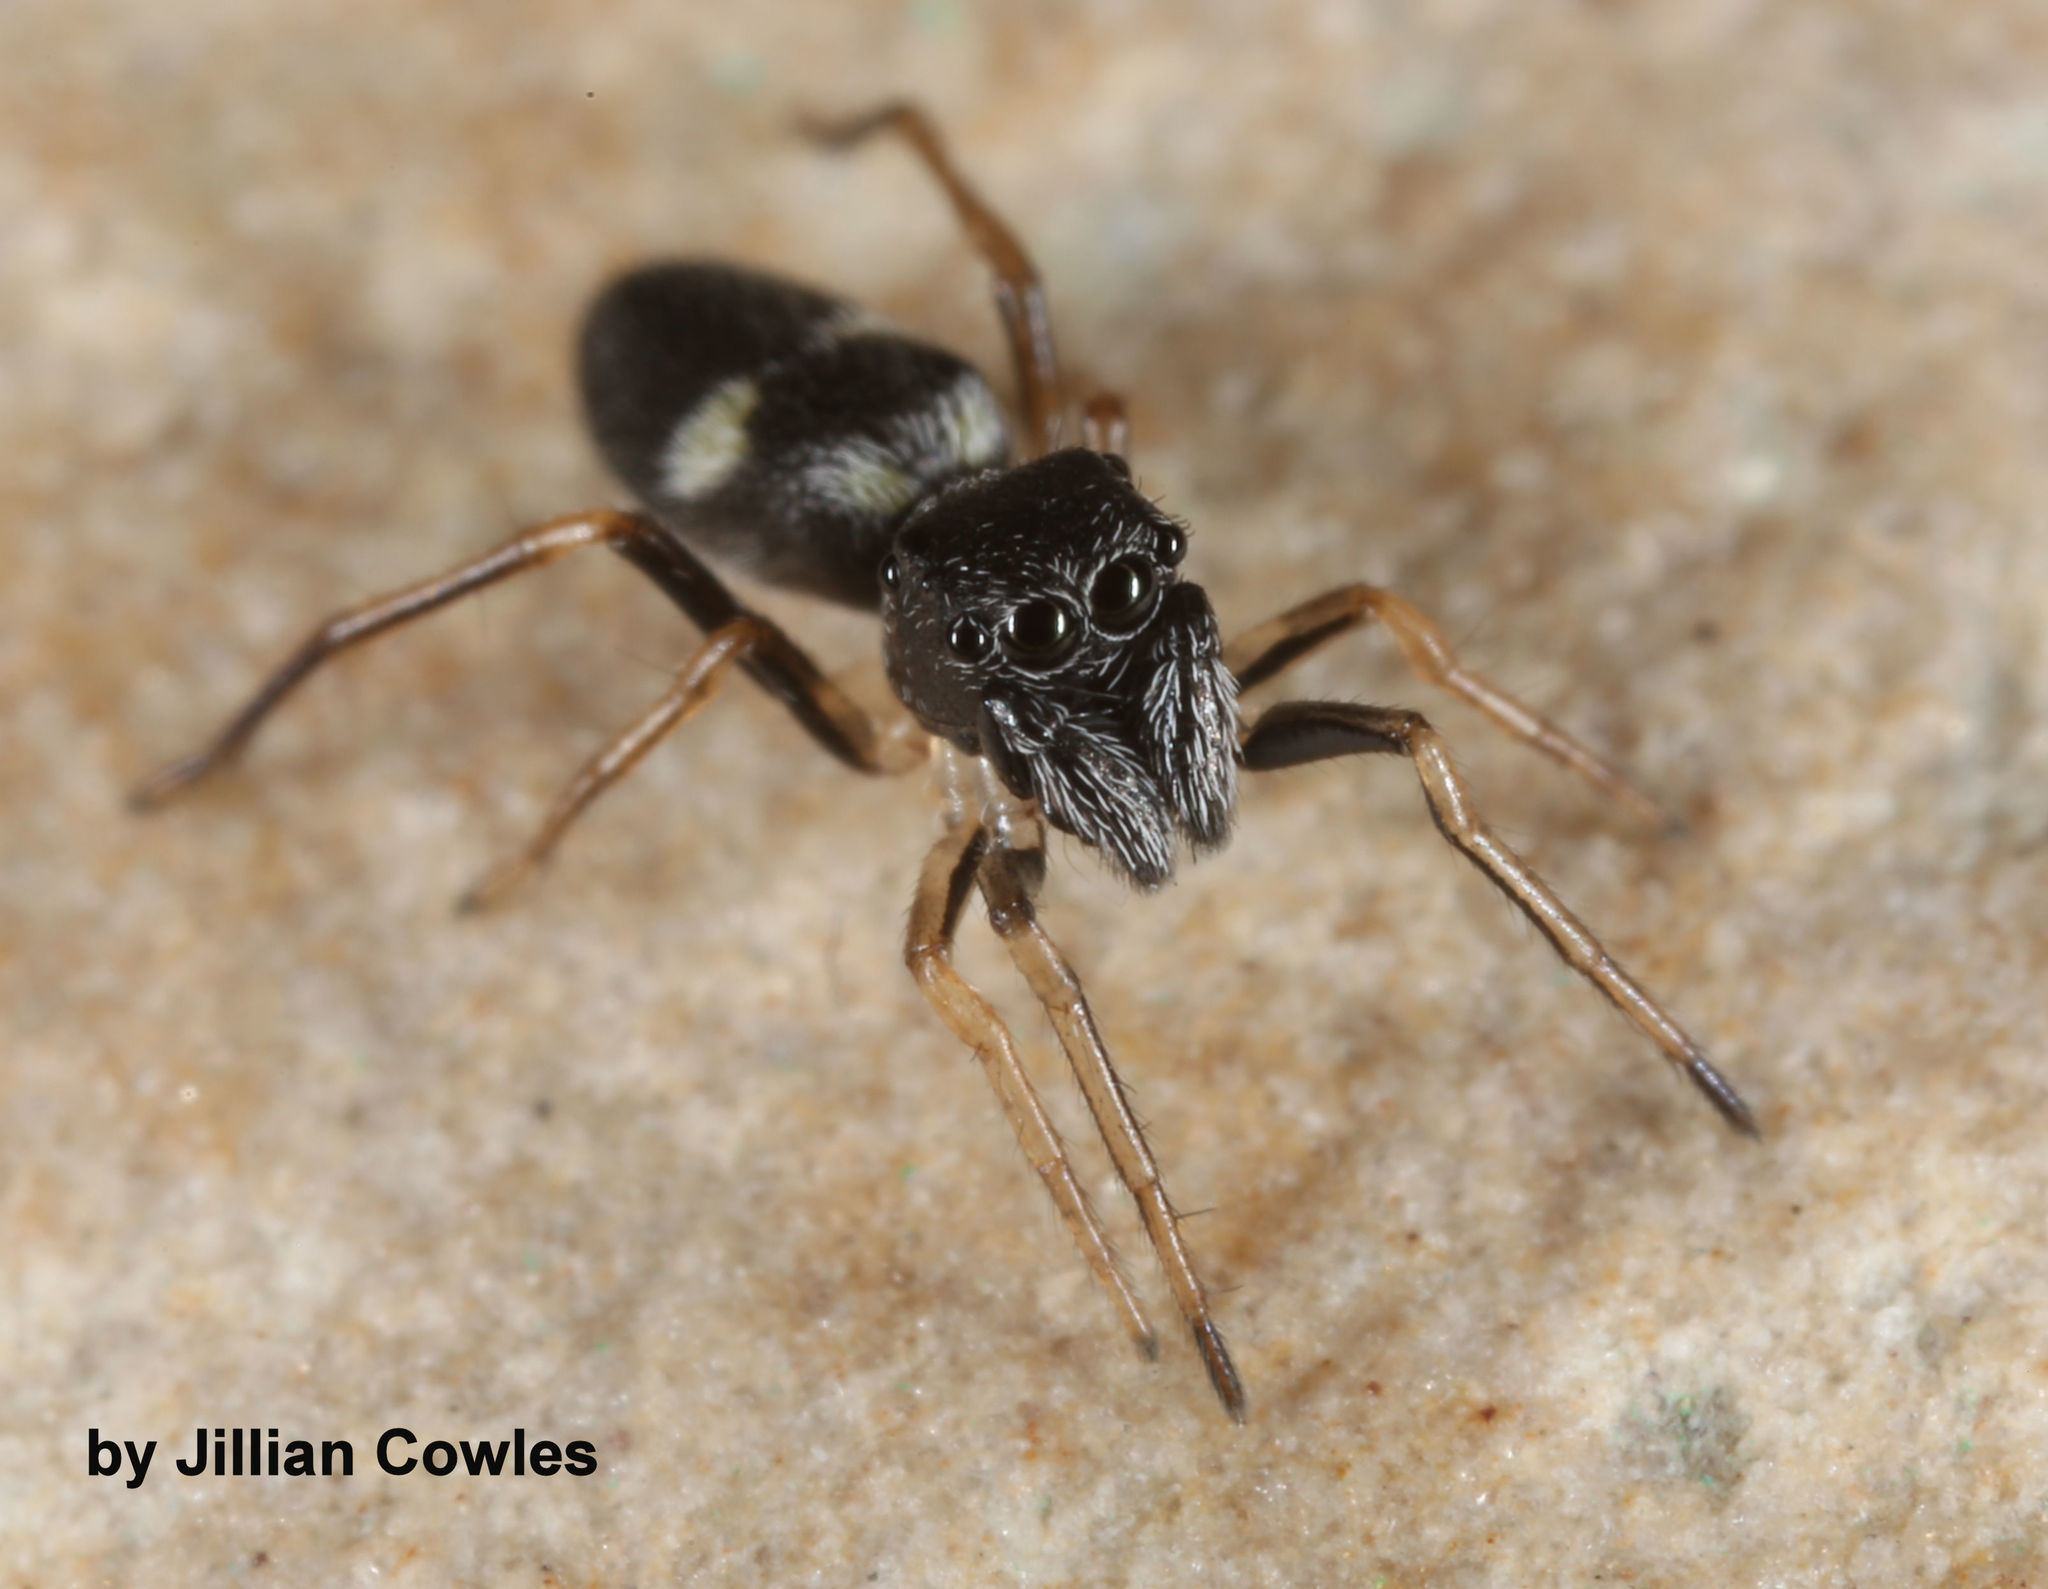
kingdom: Animalia
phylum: Arthropoda
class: Arachnida
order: Araneae
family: Salticidae
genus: Sarinda
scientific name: Sarinda hentzi
